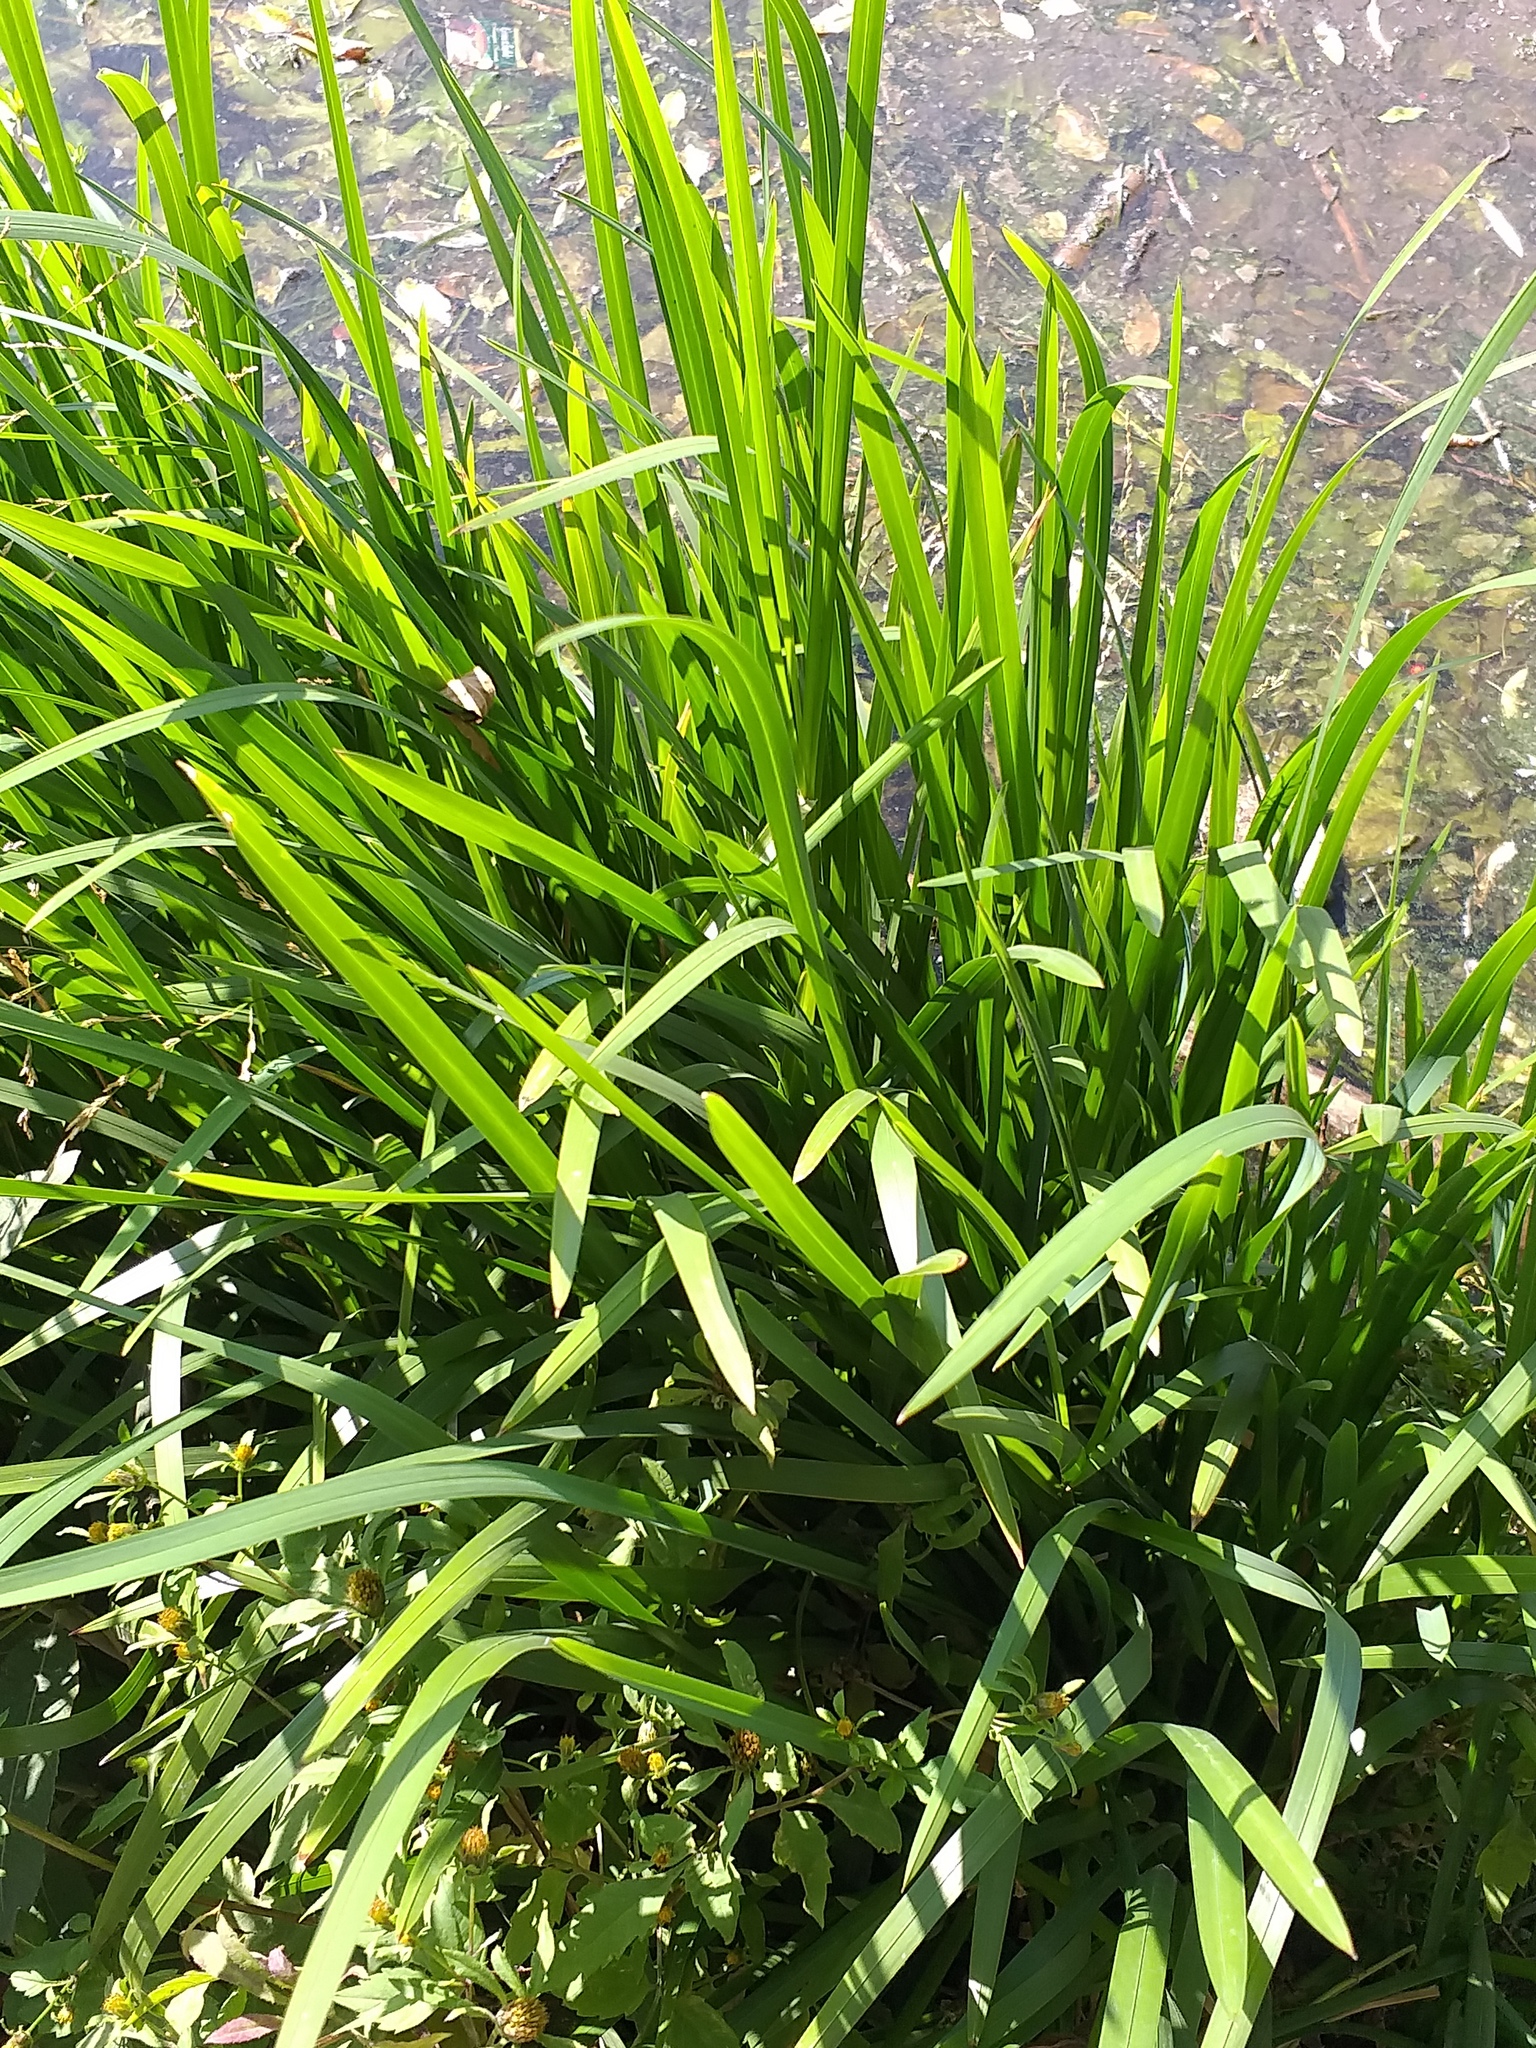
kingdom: Plantae
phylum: Tracheophyta
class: Liliopsida
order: Poales
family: Poaceae
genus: Glyceria
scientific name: Glyceria maxima
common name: Reed mannagrass
